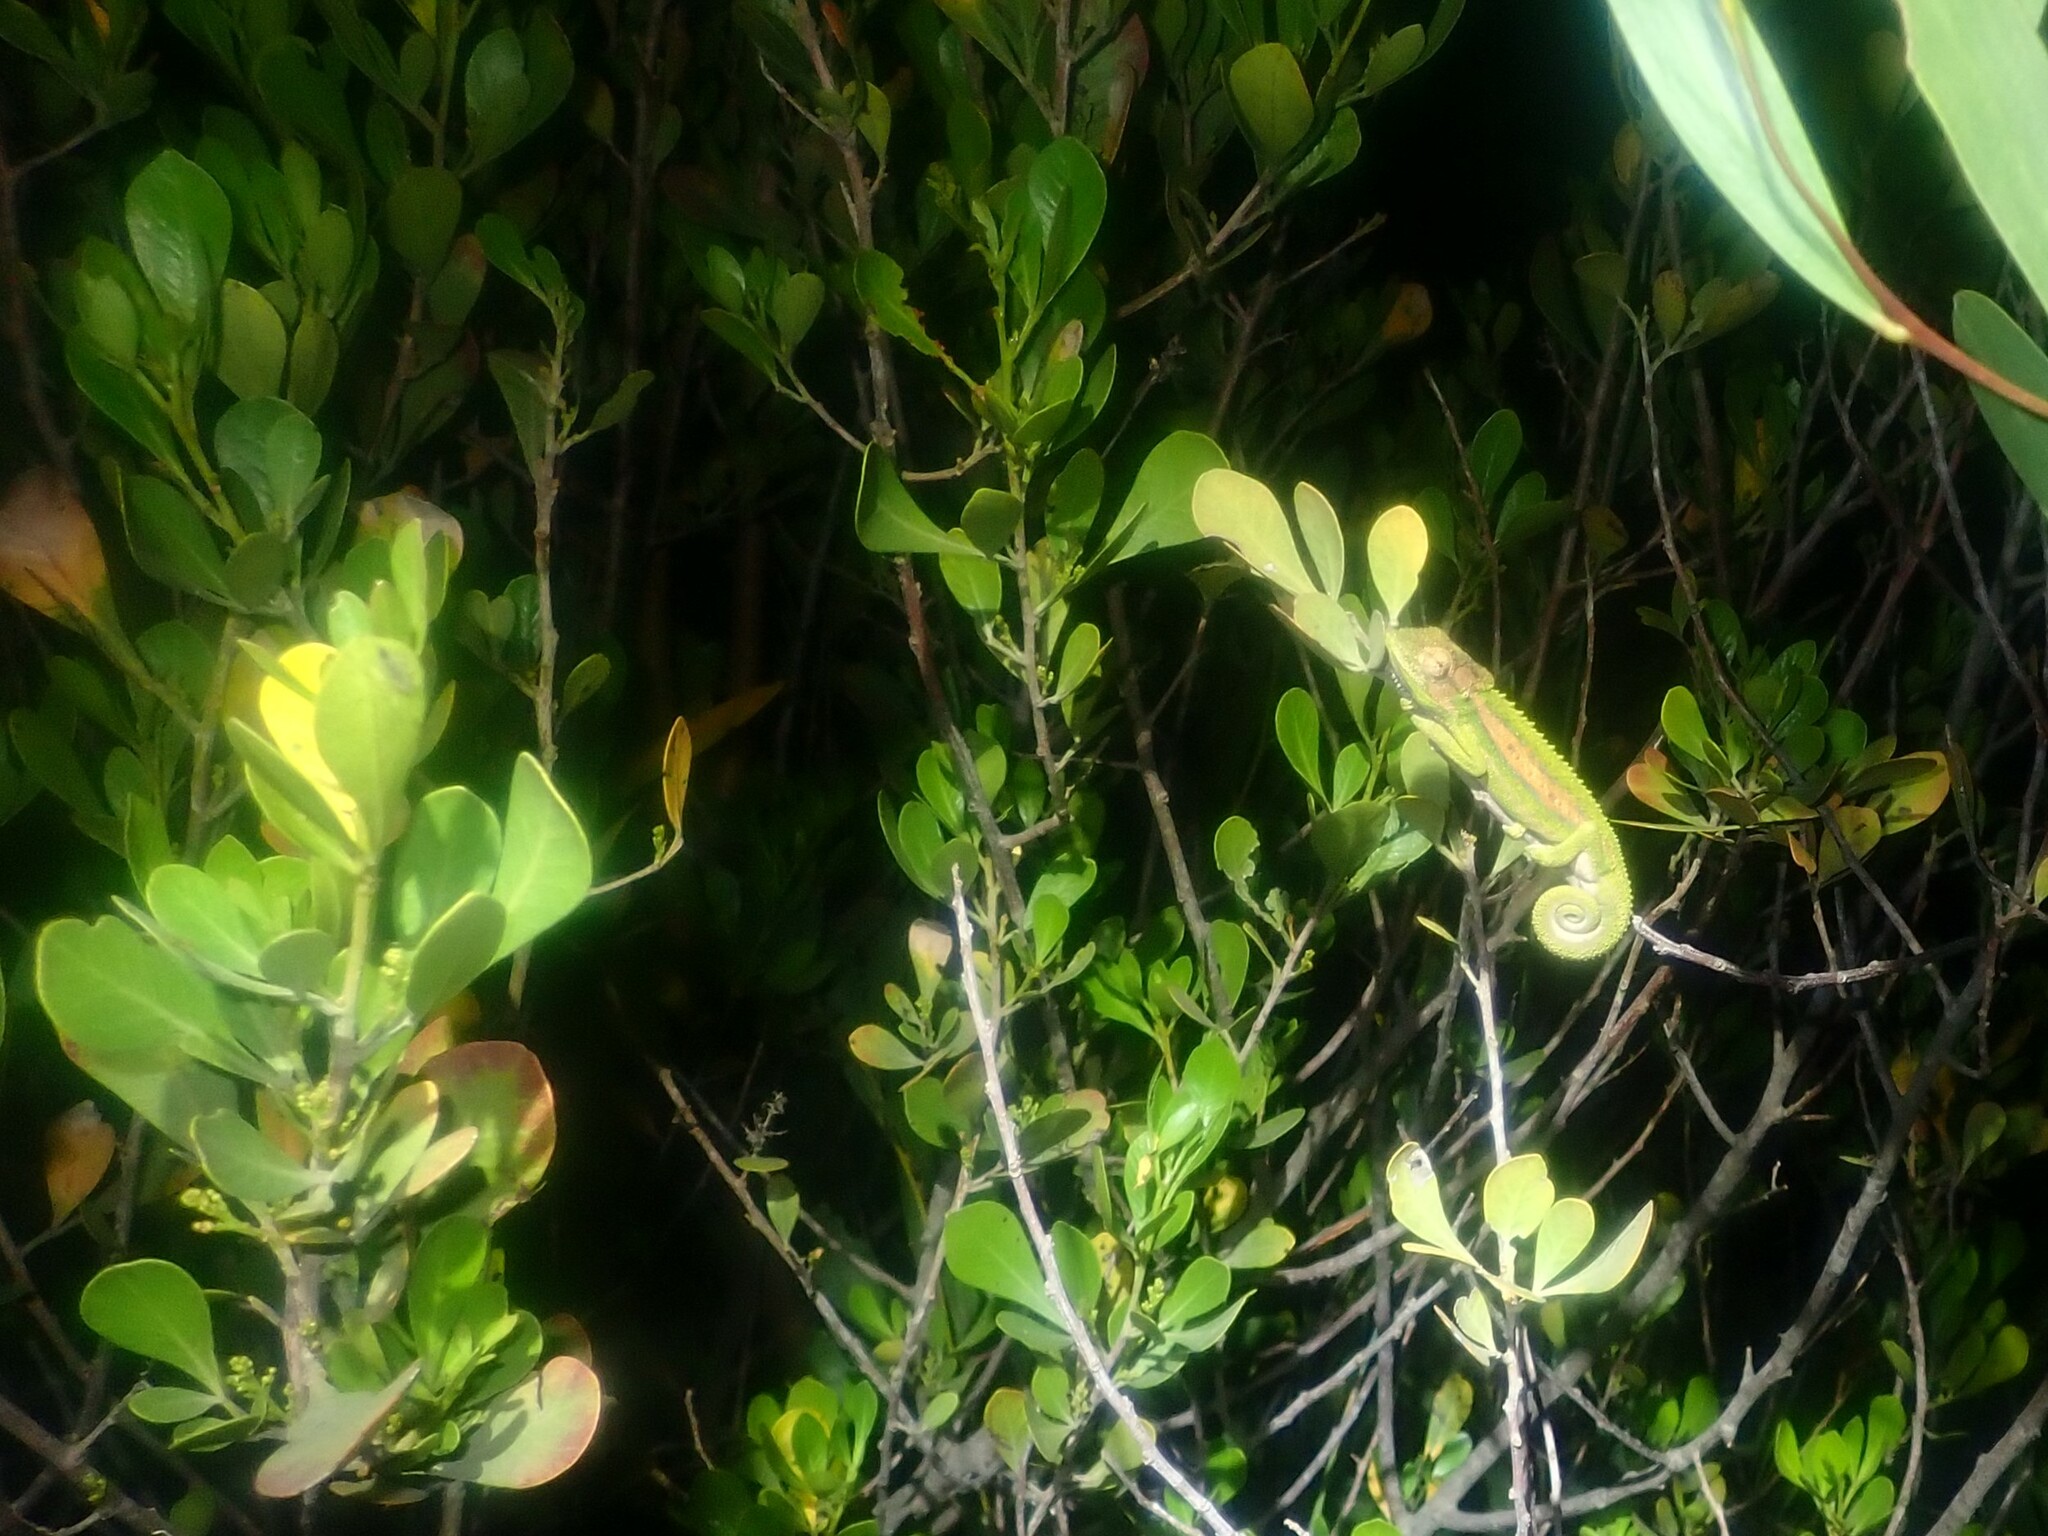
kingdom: Animalia
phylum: Chordata
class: Squamata
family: Chamaeleonidae
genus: Bradypodion
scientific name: Bradypodion pumilum
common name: Cape dwarf chameleon
